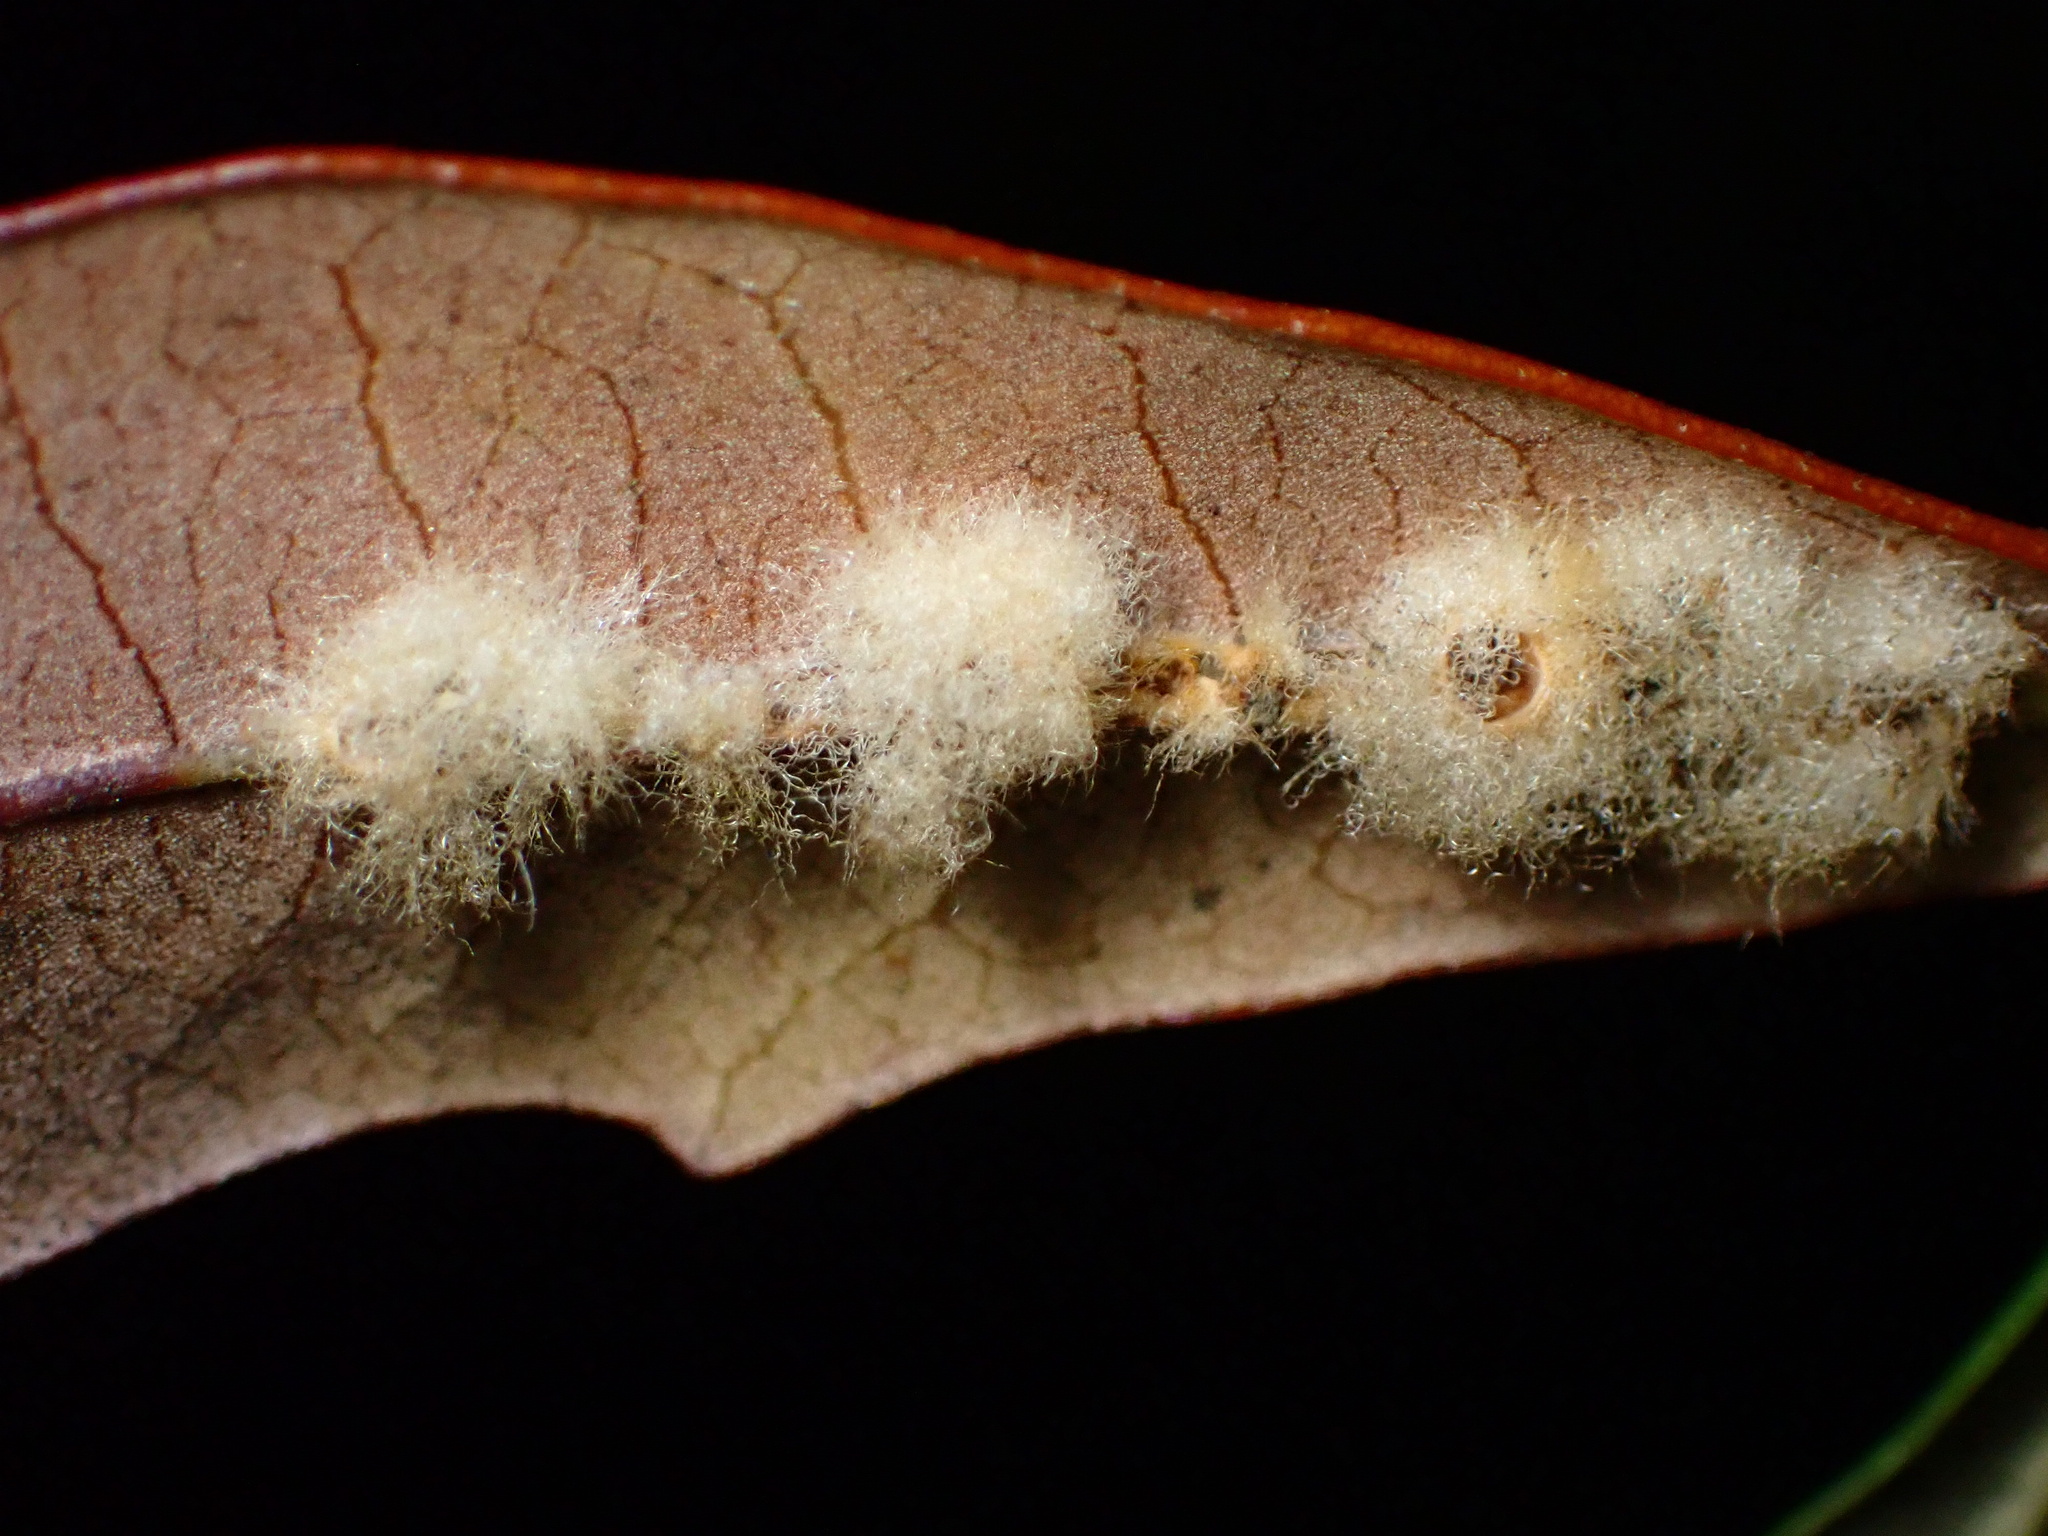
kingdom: Animalia
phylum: Arthropoda
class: Insecta
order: Hymenoptera
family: Cynipidae
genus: Andricus
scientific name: Andricus Druon quercuslanigerum
